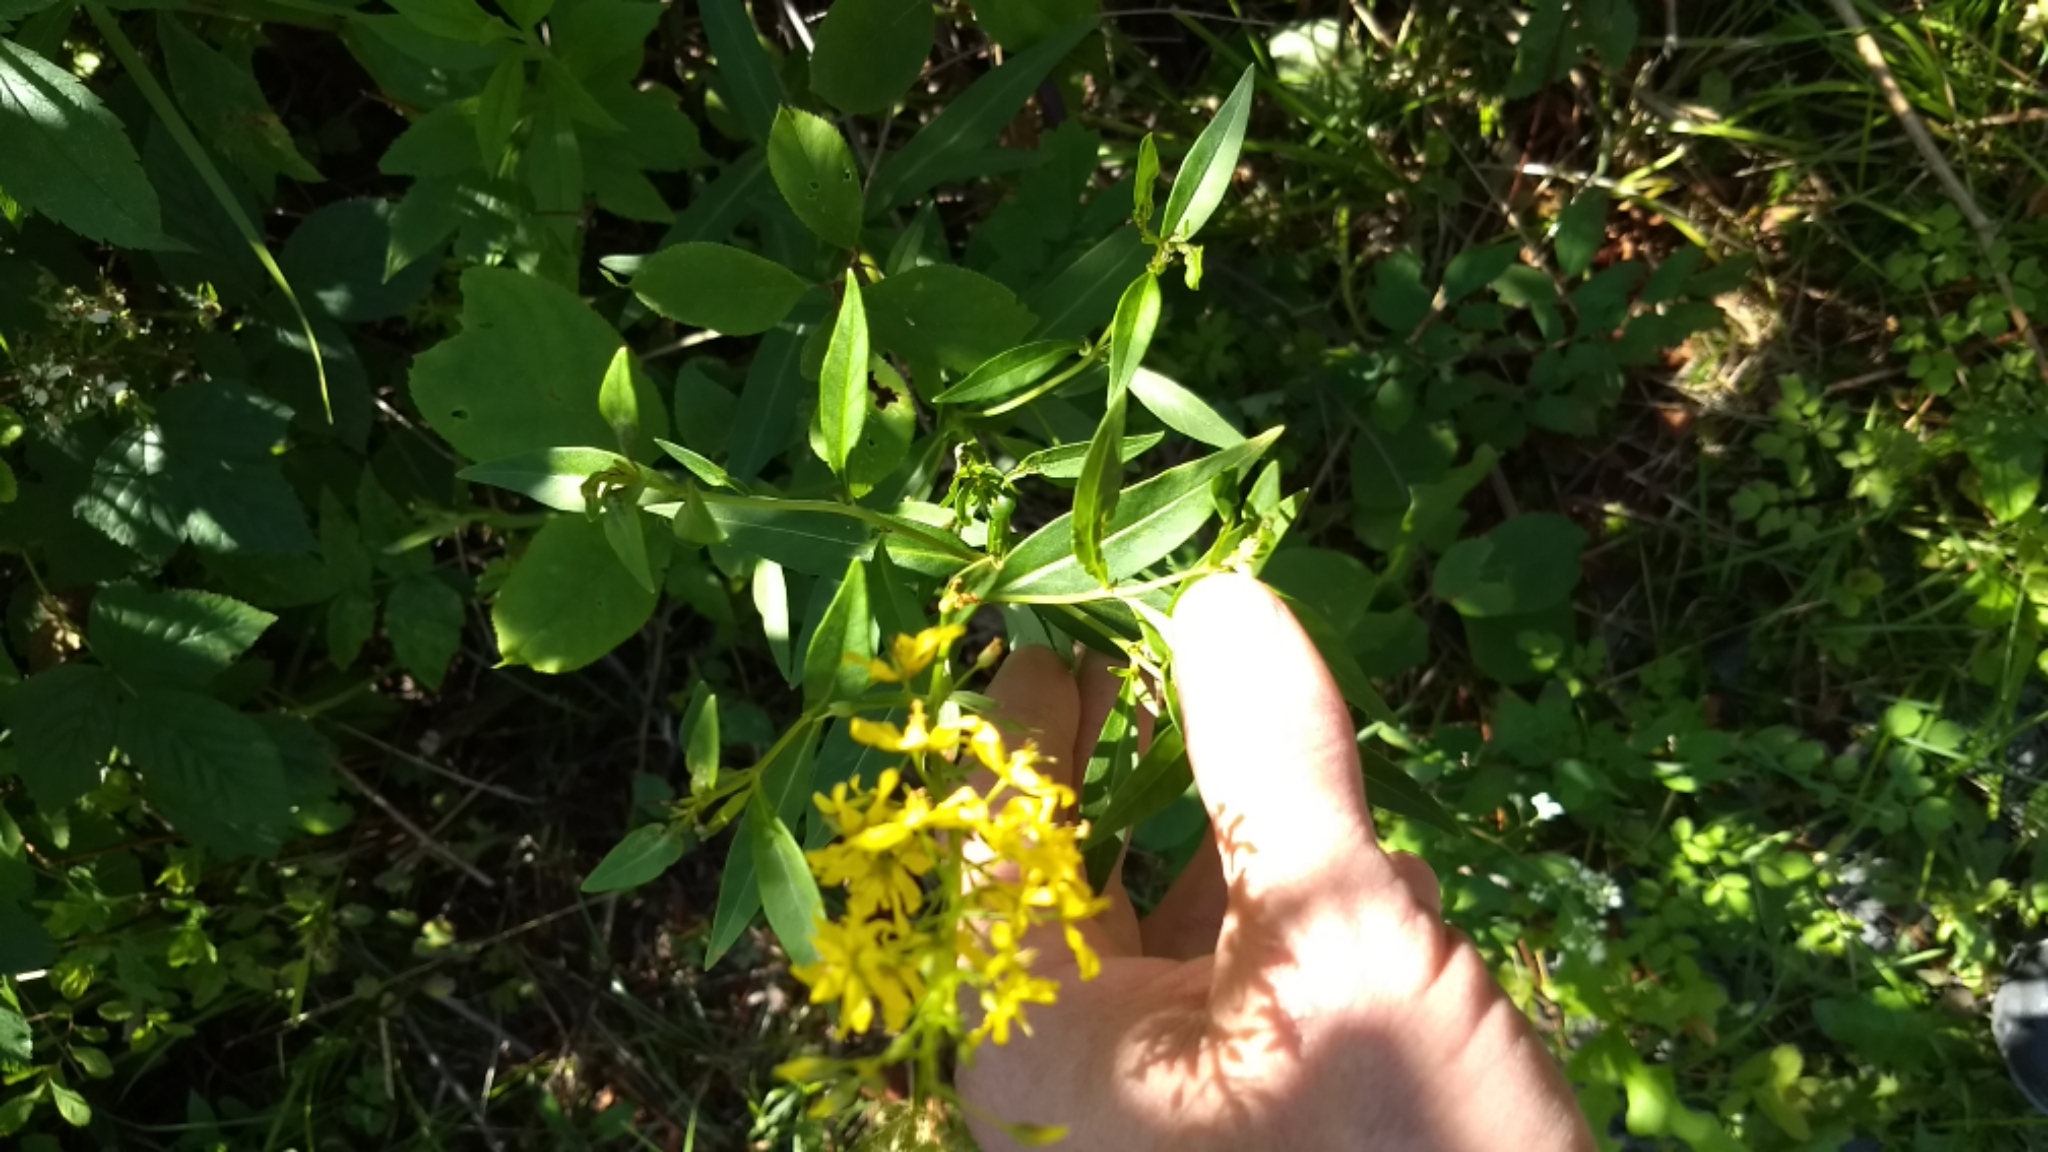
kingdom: Plantae
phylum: Tracheophyta
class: Magnoliopsida
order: Ericales
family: Primulaceae
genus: Lysimachia
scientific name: Lysimachia terrestris
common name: Lake loosestrife
